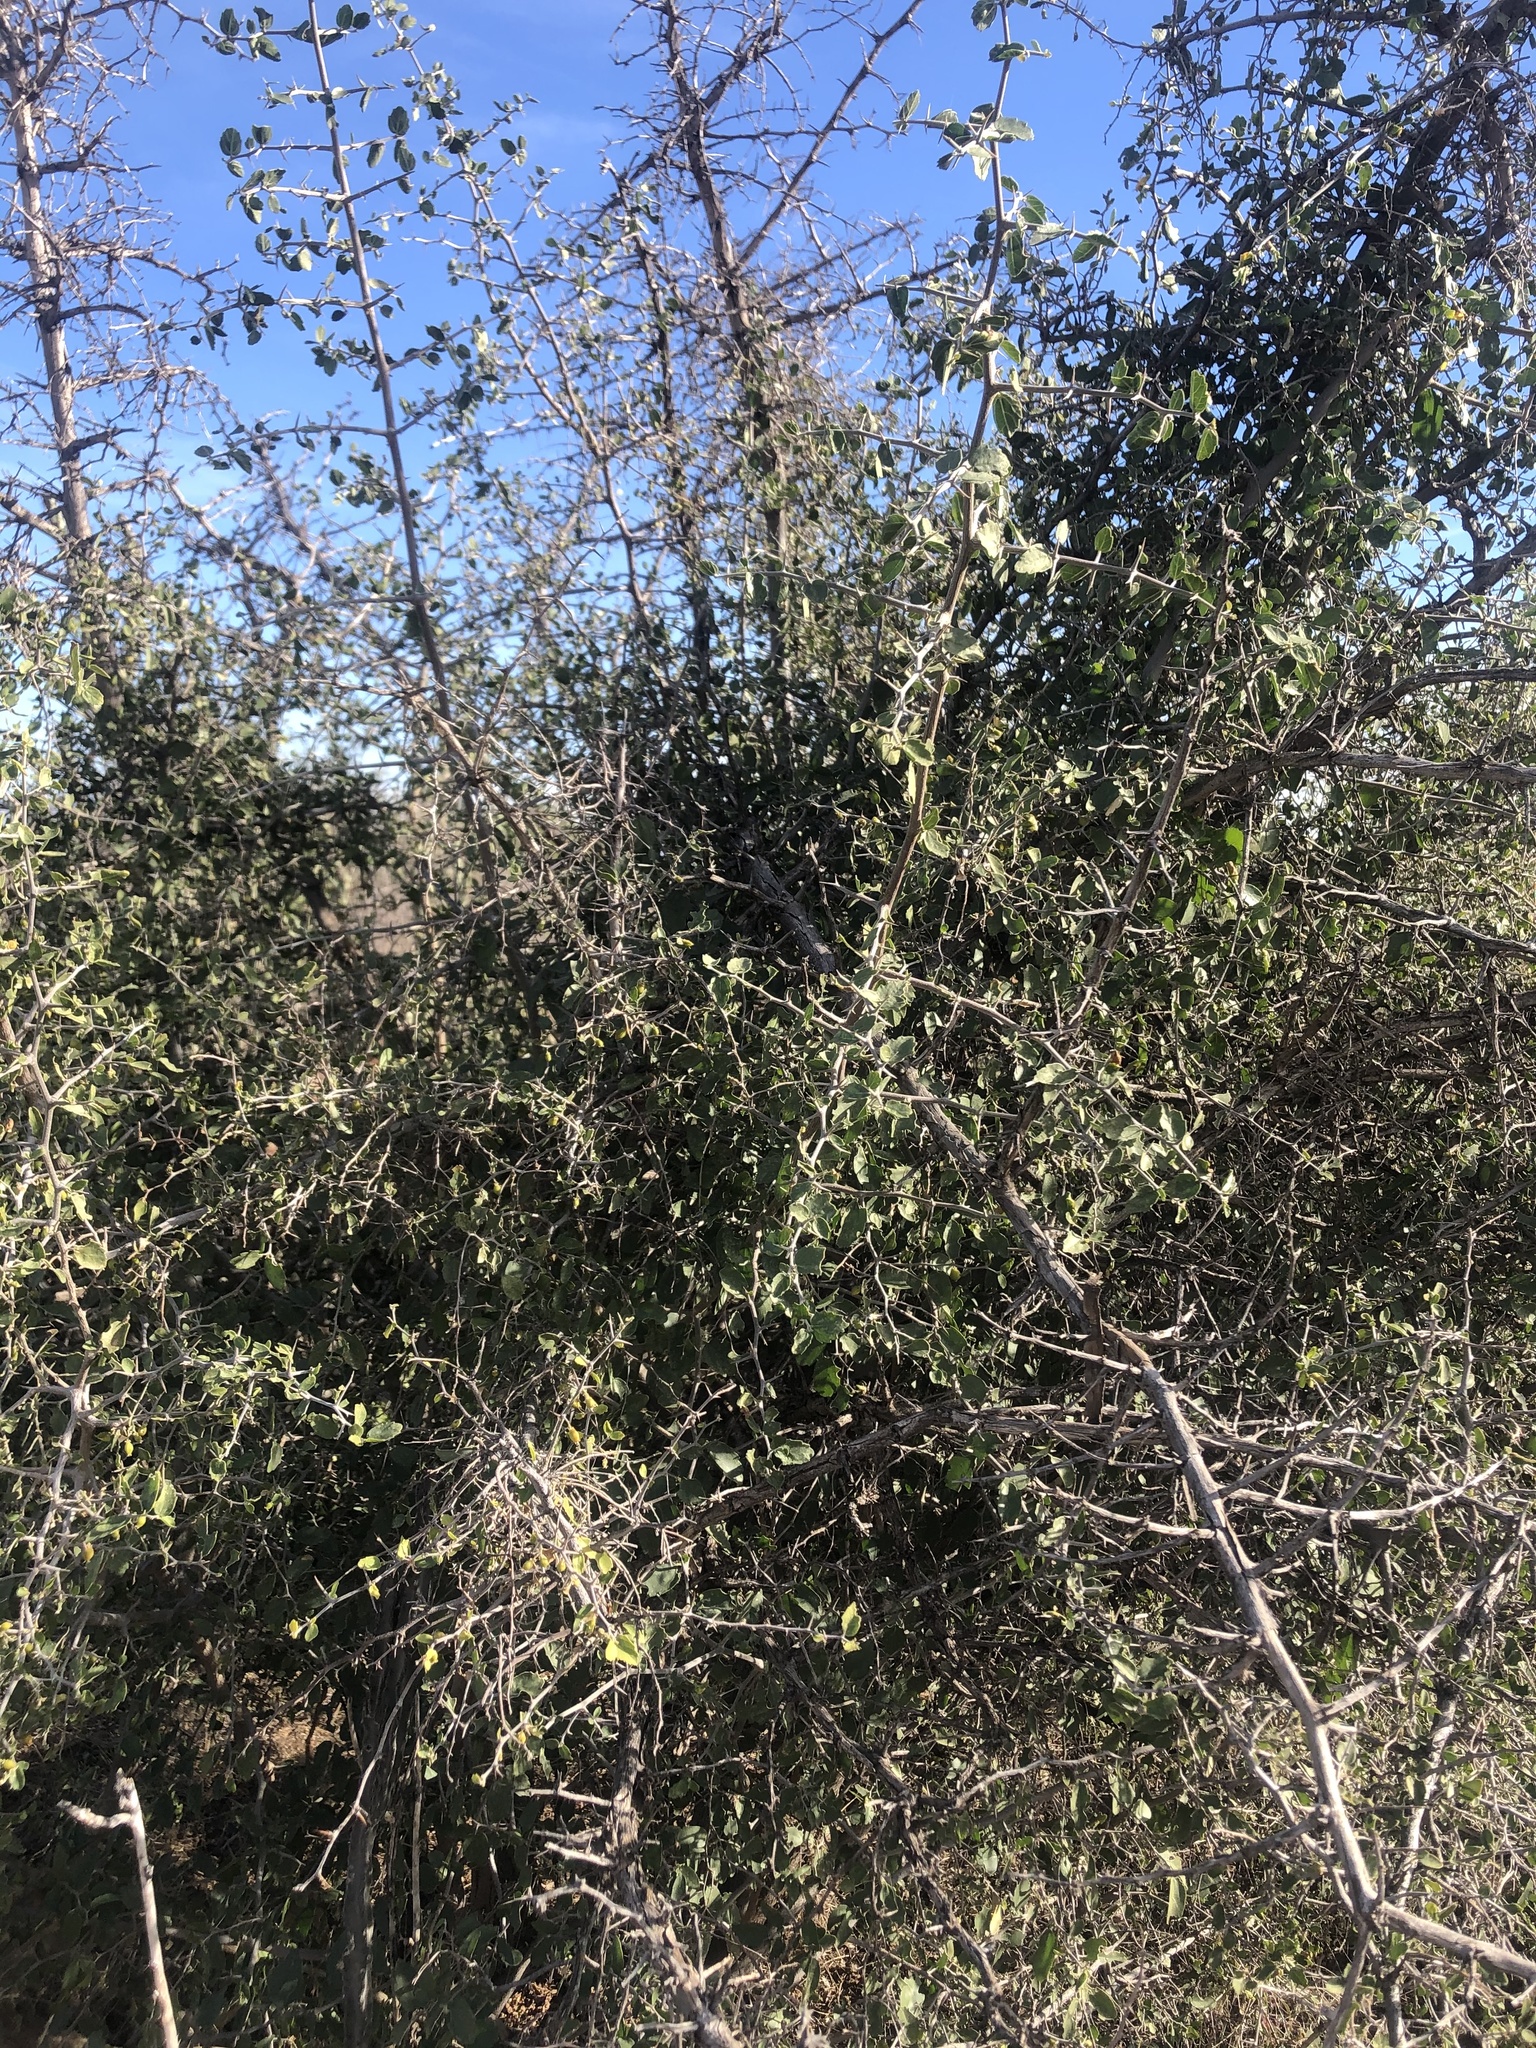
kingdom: Plantae
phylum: Tracheophyta
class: Magnoliopsida
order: Rosales
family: Cannabaceae
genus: Celtis
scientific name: Celtis pallida
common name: Desert hackberry
